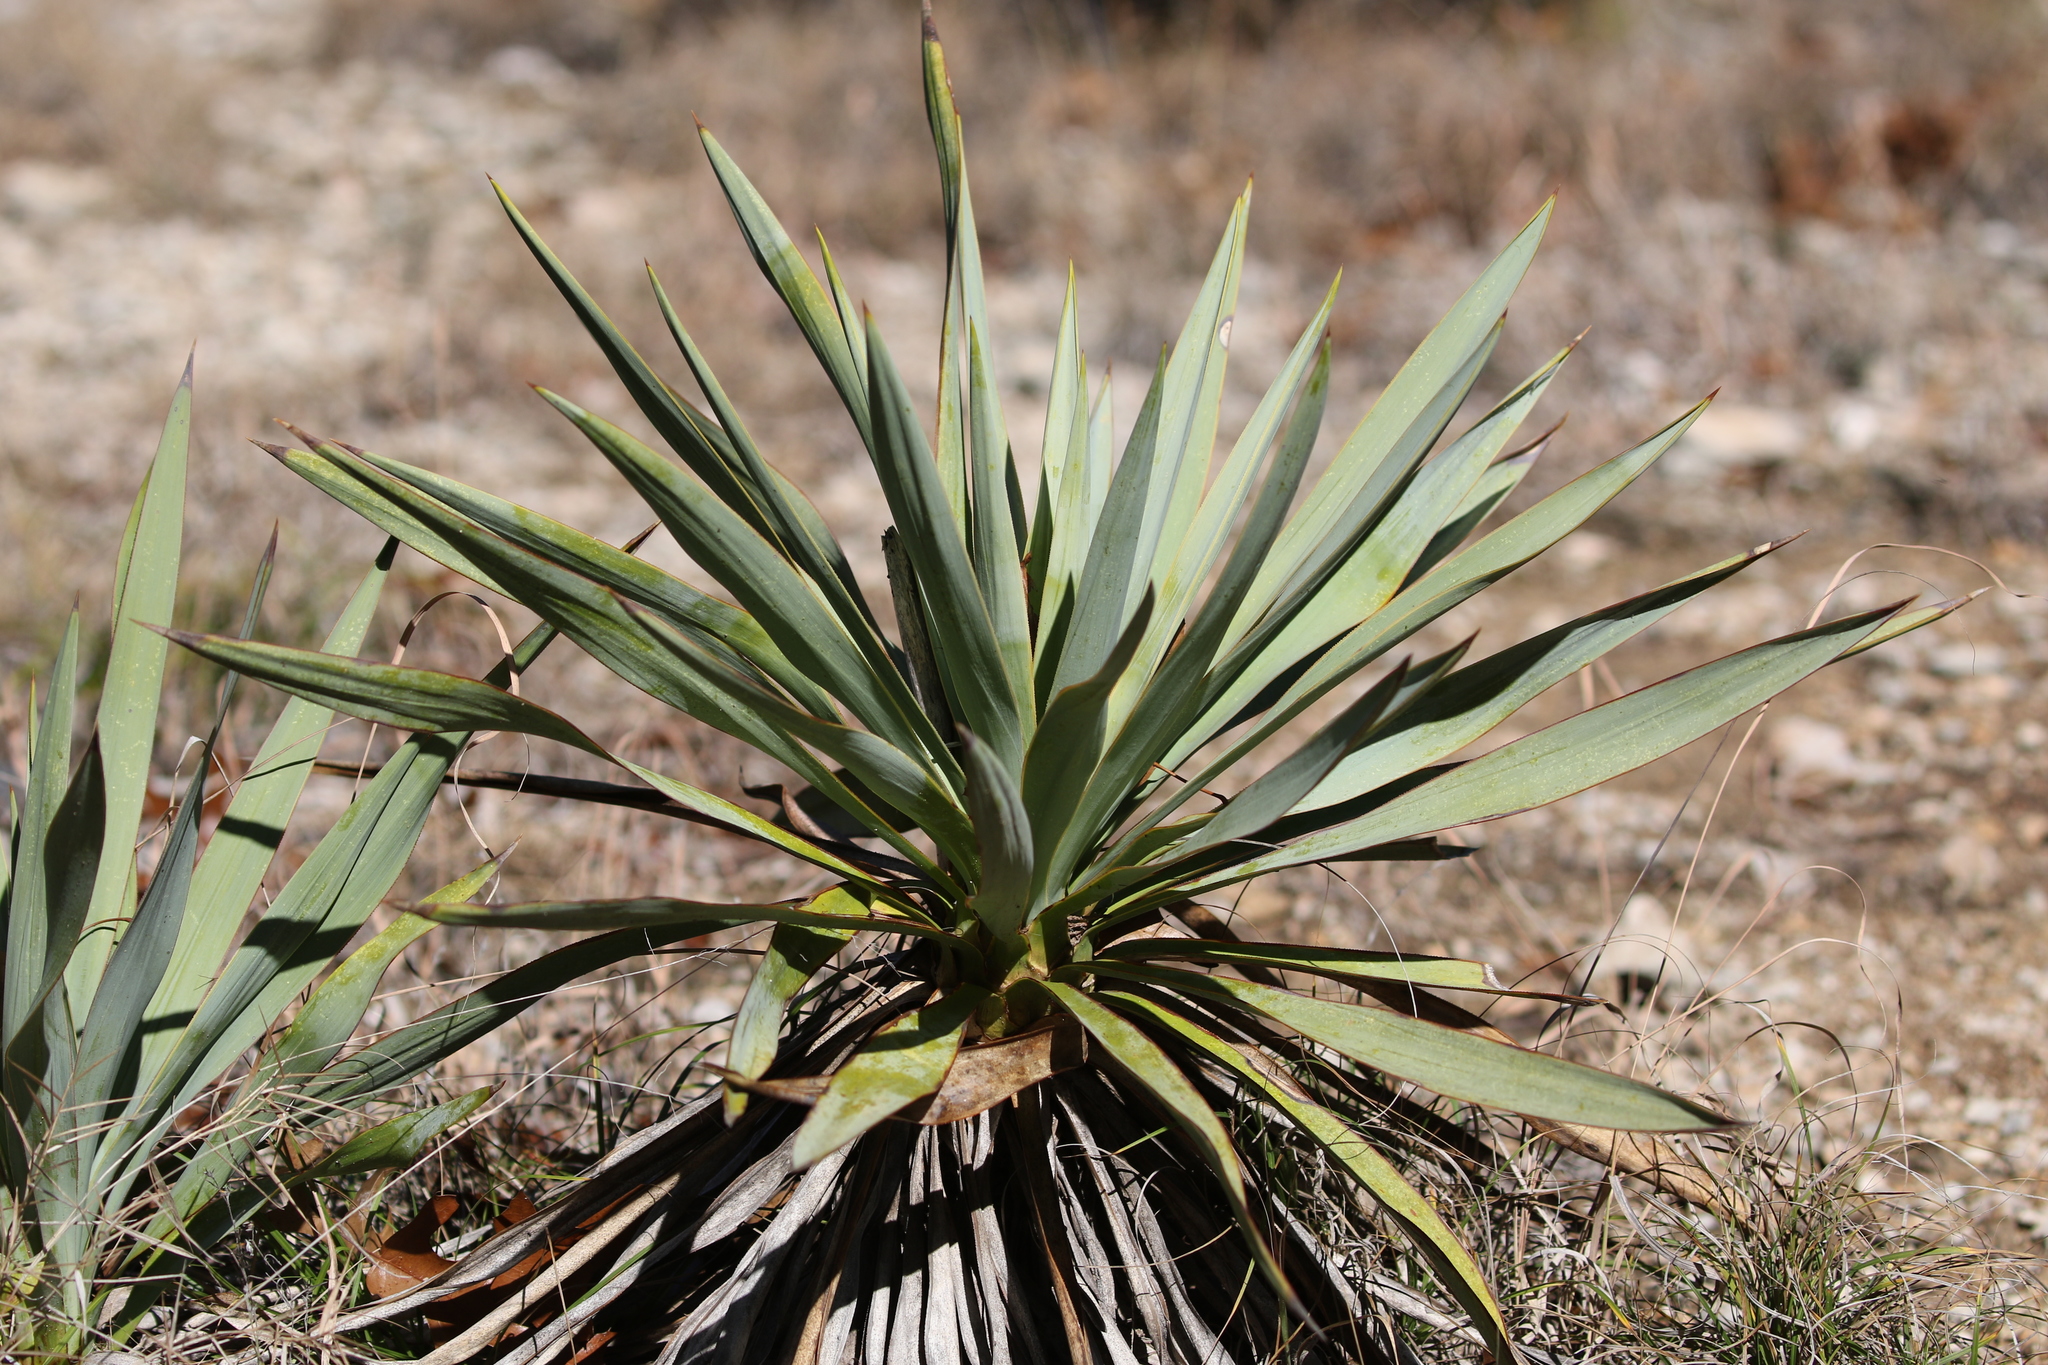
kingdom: Plantae
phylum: Tracheophyta
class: Liliopsida
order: Asparagales
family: Asparagaceae
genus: Yucca
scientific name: Yucca rupicola
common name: Twisted-leaf spanish-dagger
